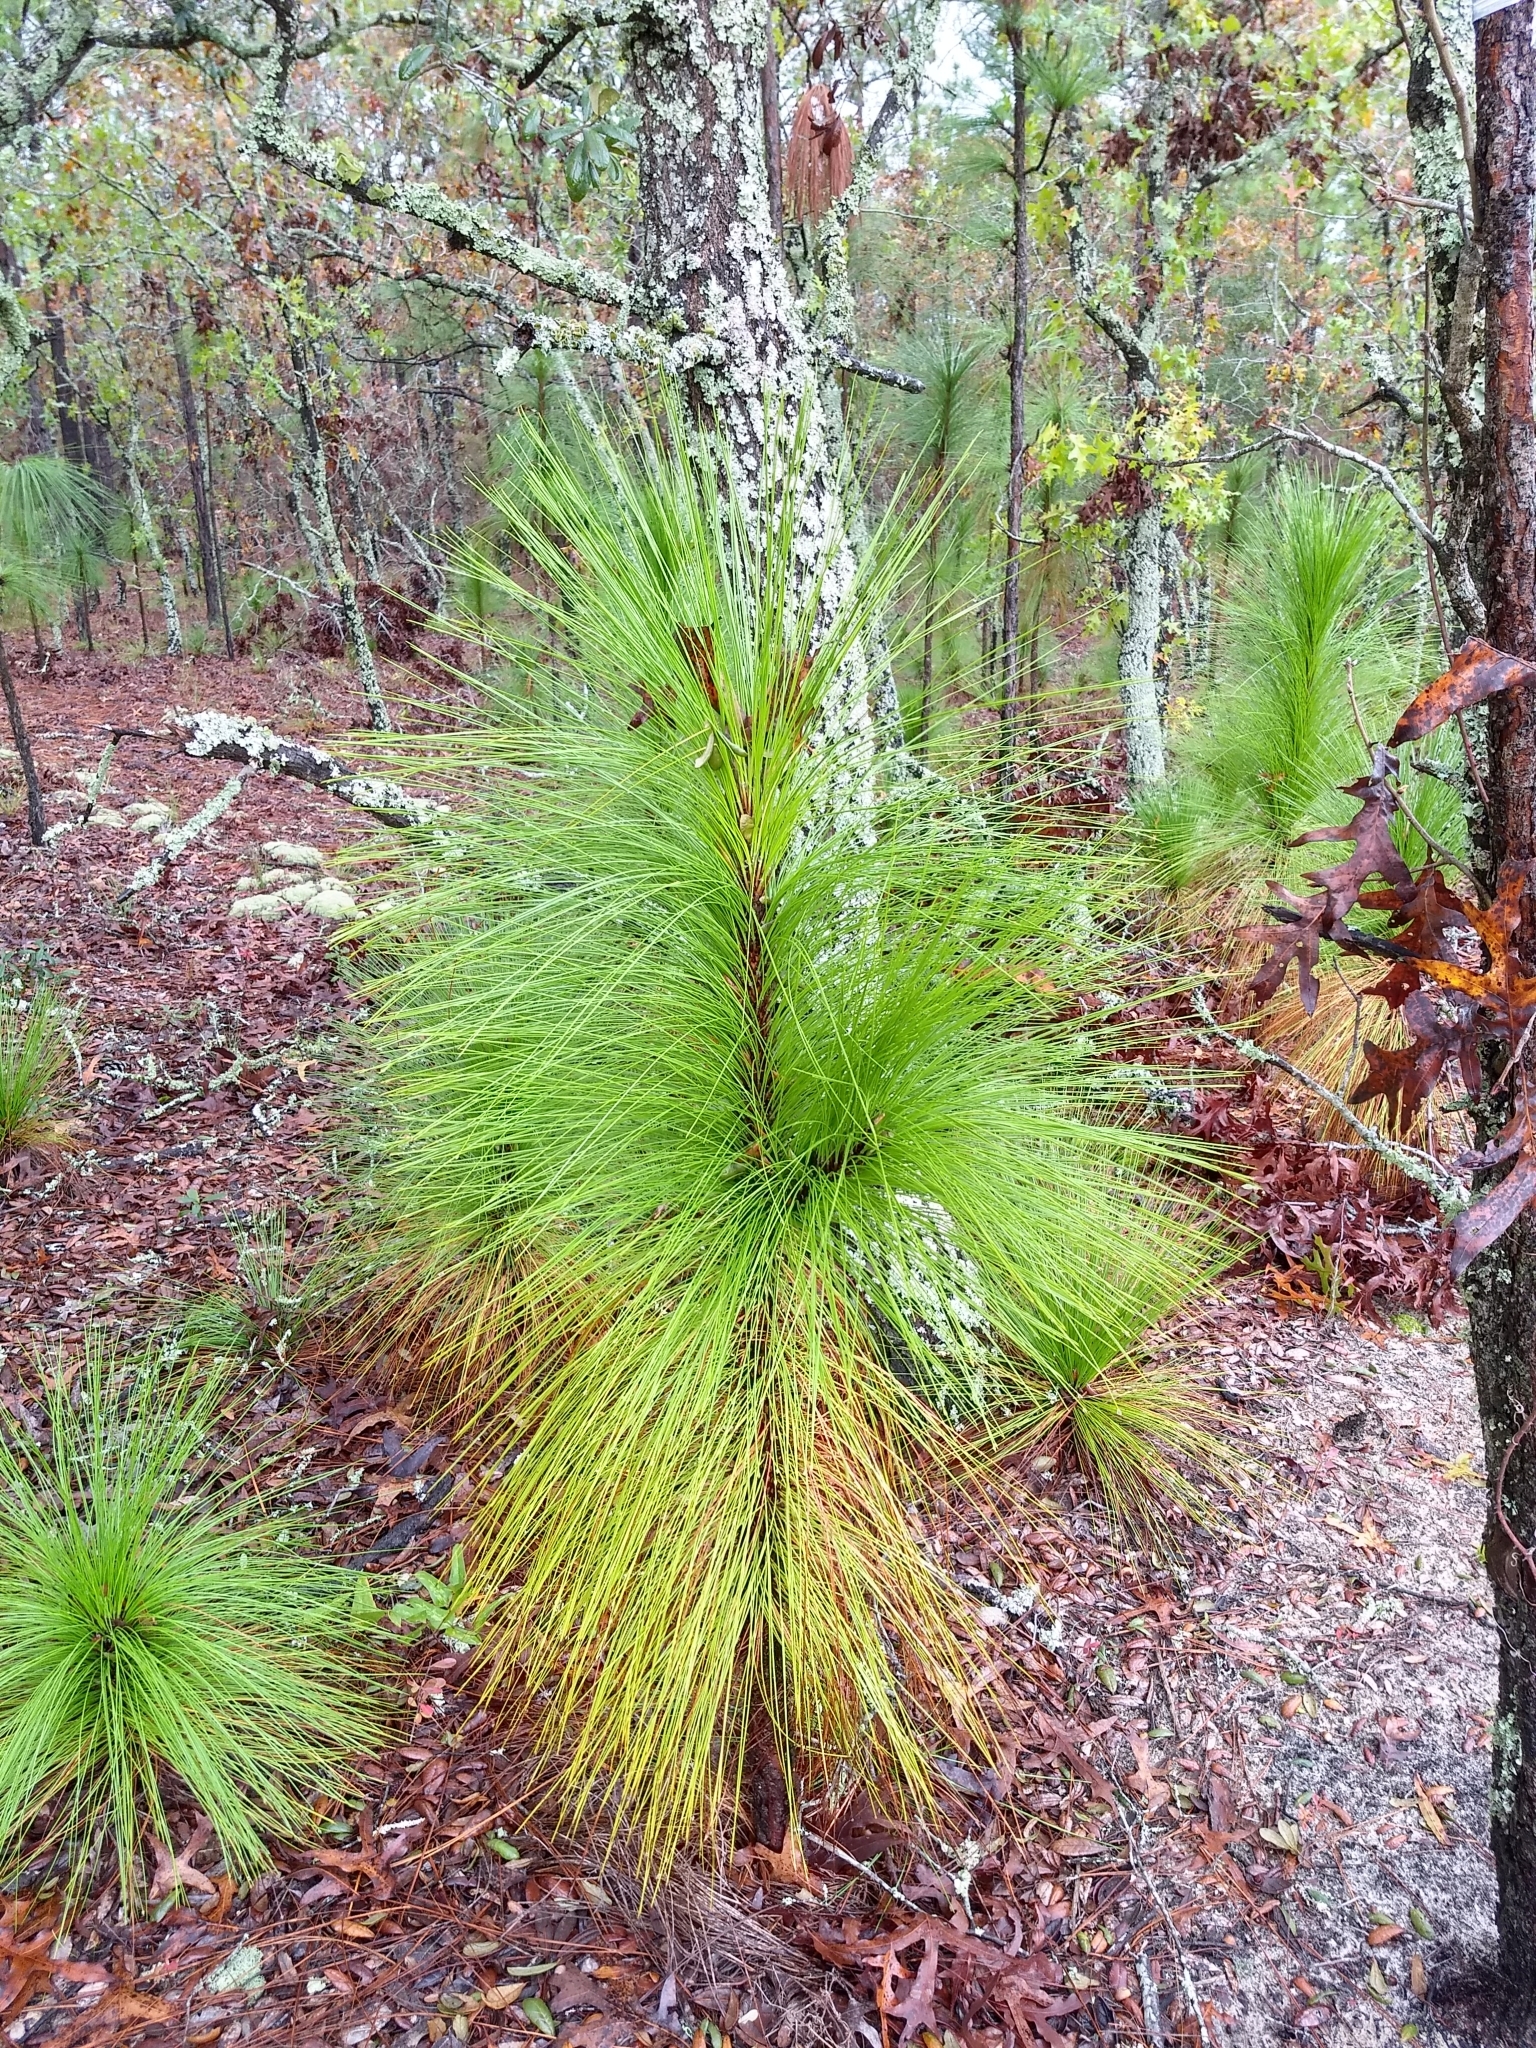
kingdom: Plantae
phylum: Tracheophyta
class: Pinopsida
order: Pinales
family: Pinaceae
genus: Pinus
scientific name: Pinus palustris
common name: Longleaf pine
